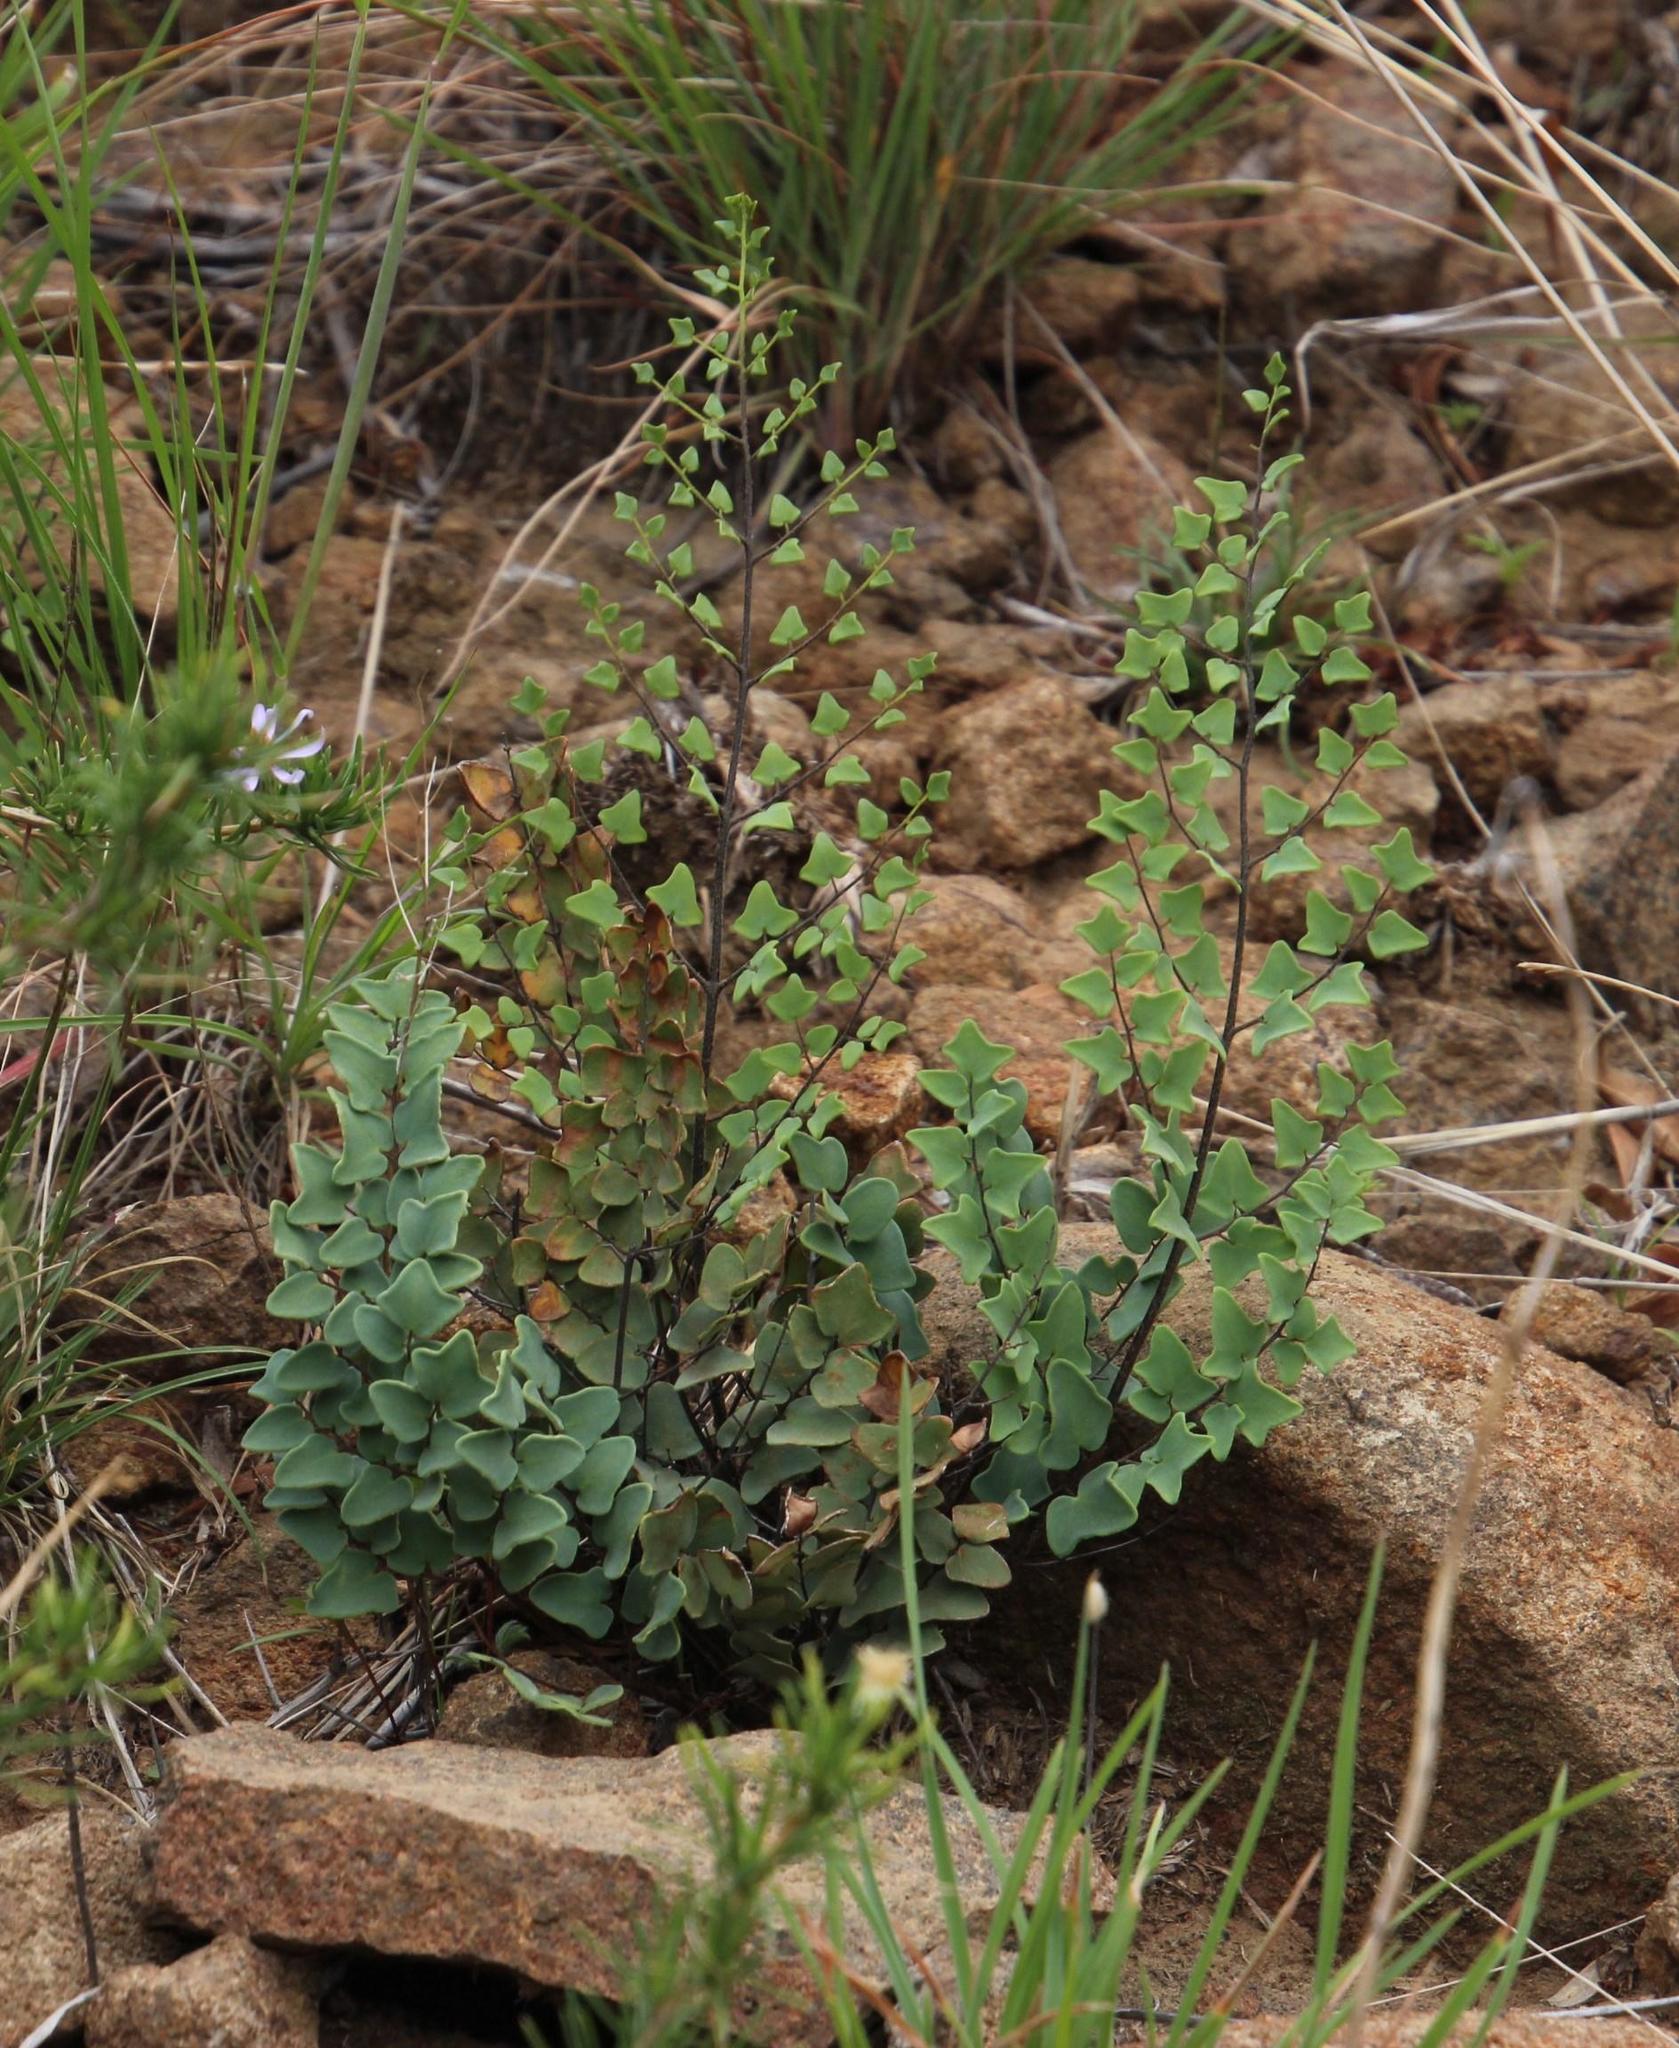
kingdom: Plantae
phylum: Tracheophyta
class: Polypodiopsida
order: Polypodiales
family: Pteridaceae
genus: Pellaea
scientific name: Pellaea calomelanos
